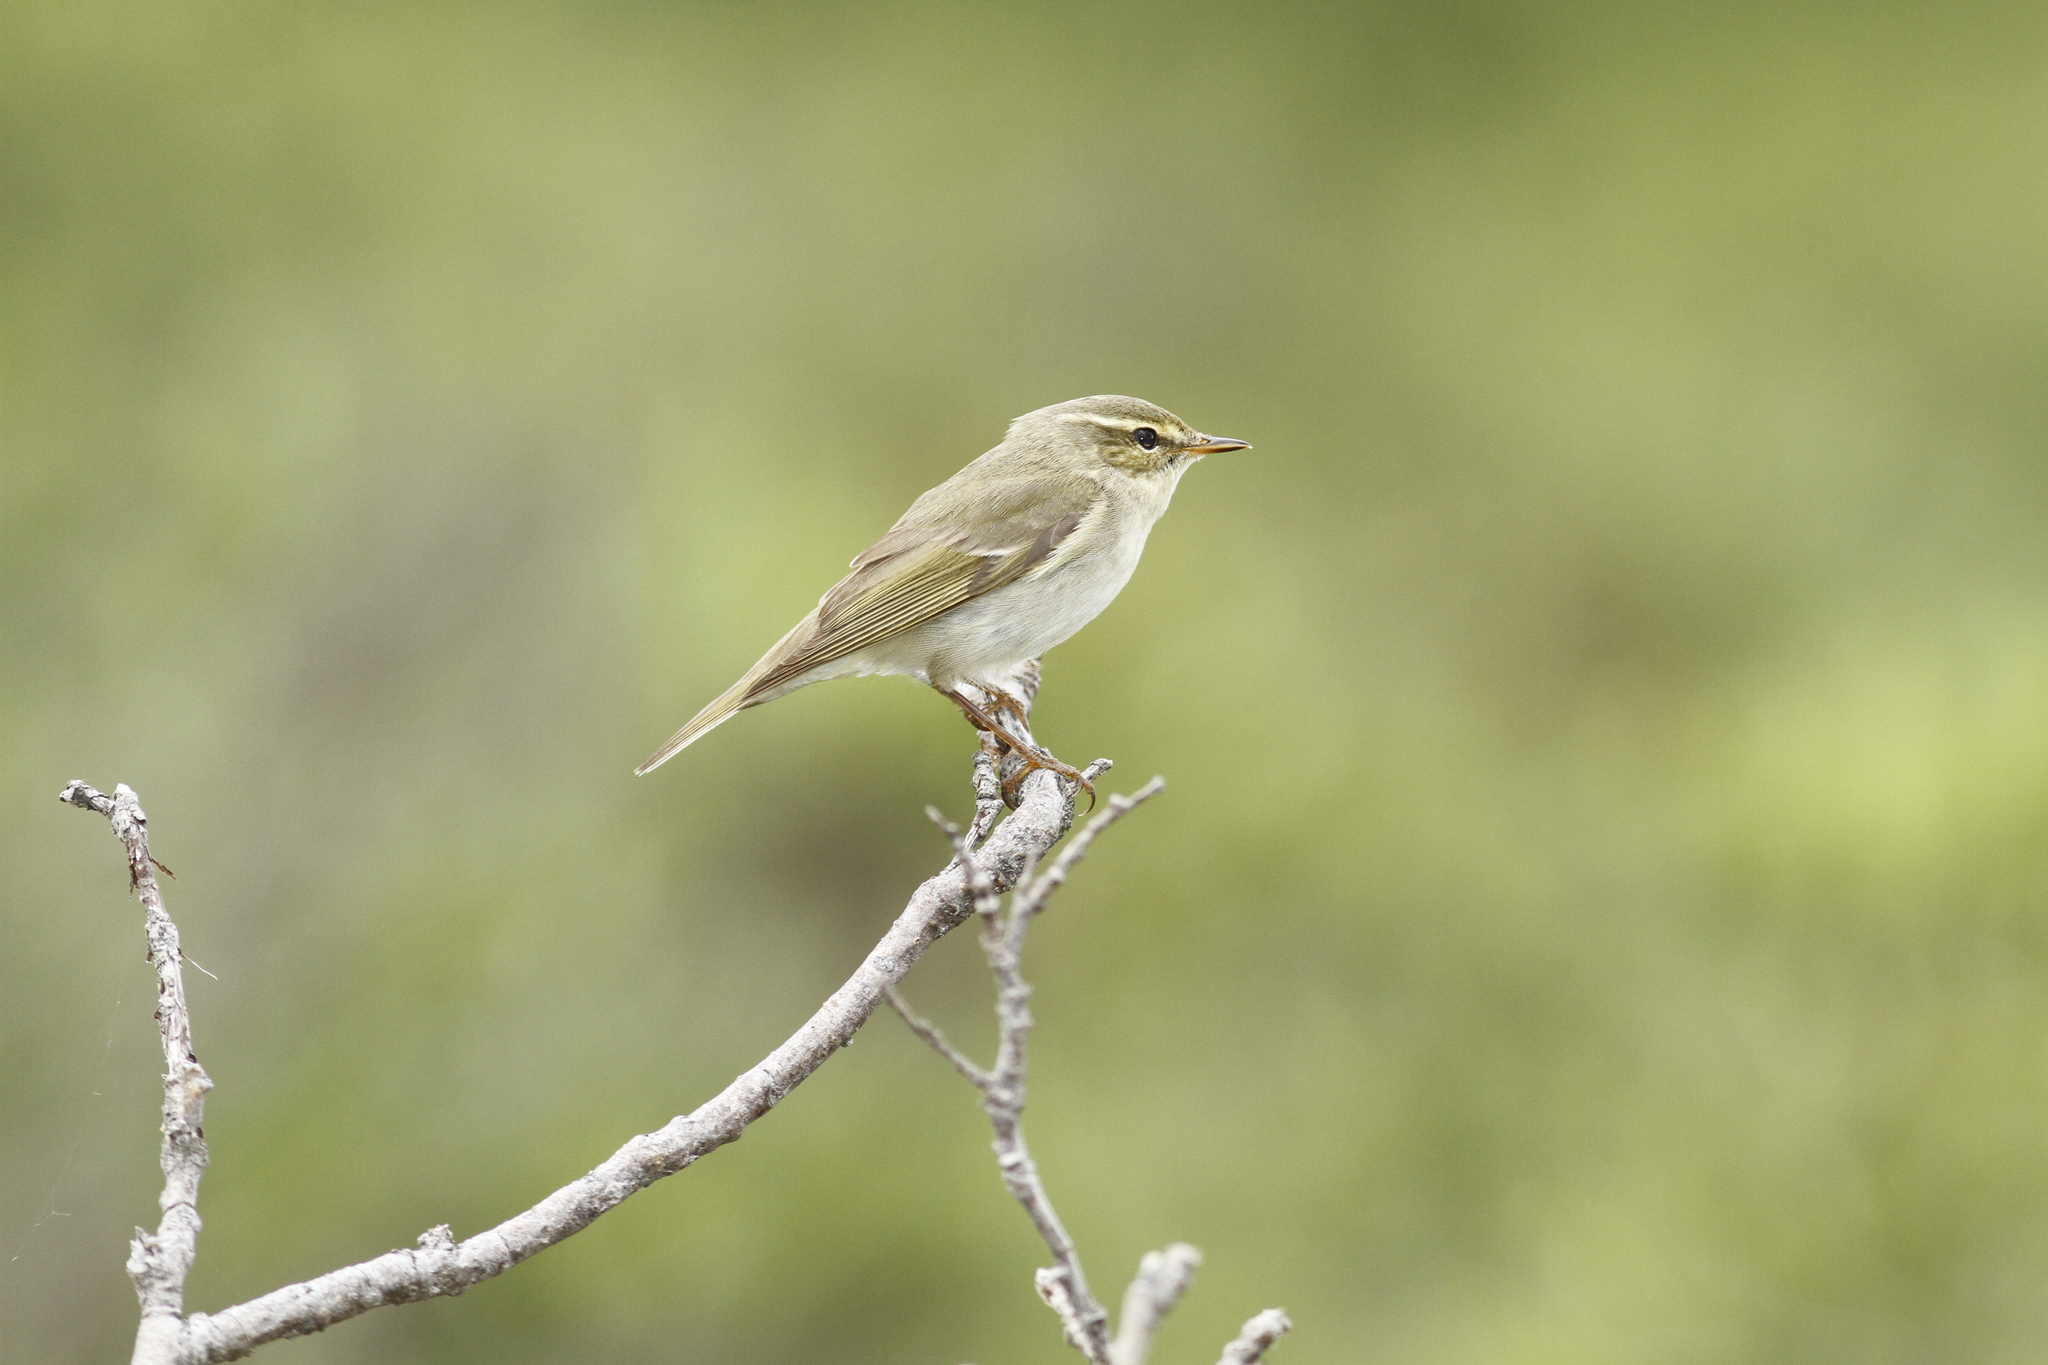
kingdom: Animalia
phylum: Chordata
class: Aves
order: Passeriformes
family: Phylloscopidae
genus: Phylloscopus
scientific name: Phylloscopus borealis
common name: Arctic warbler
